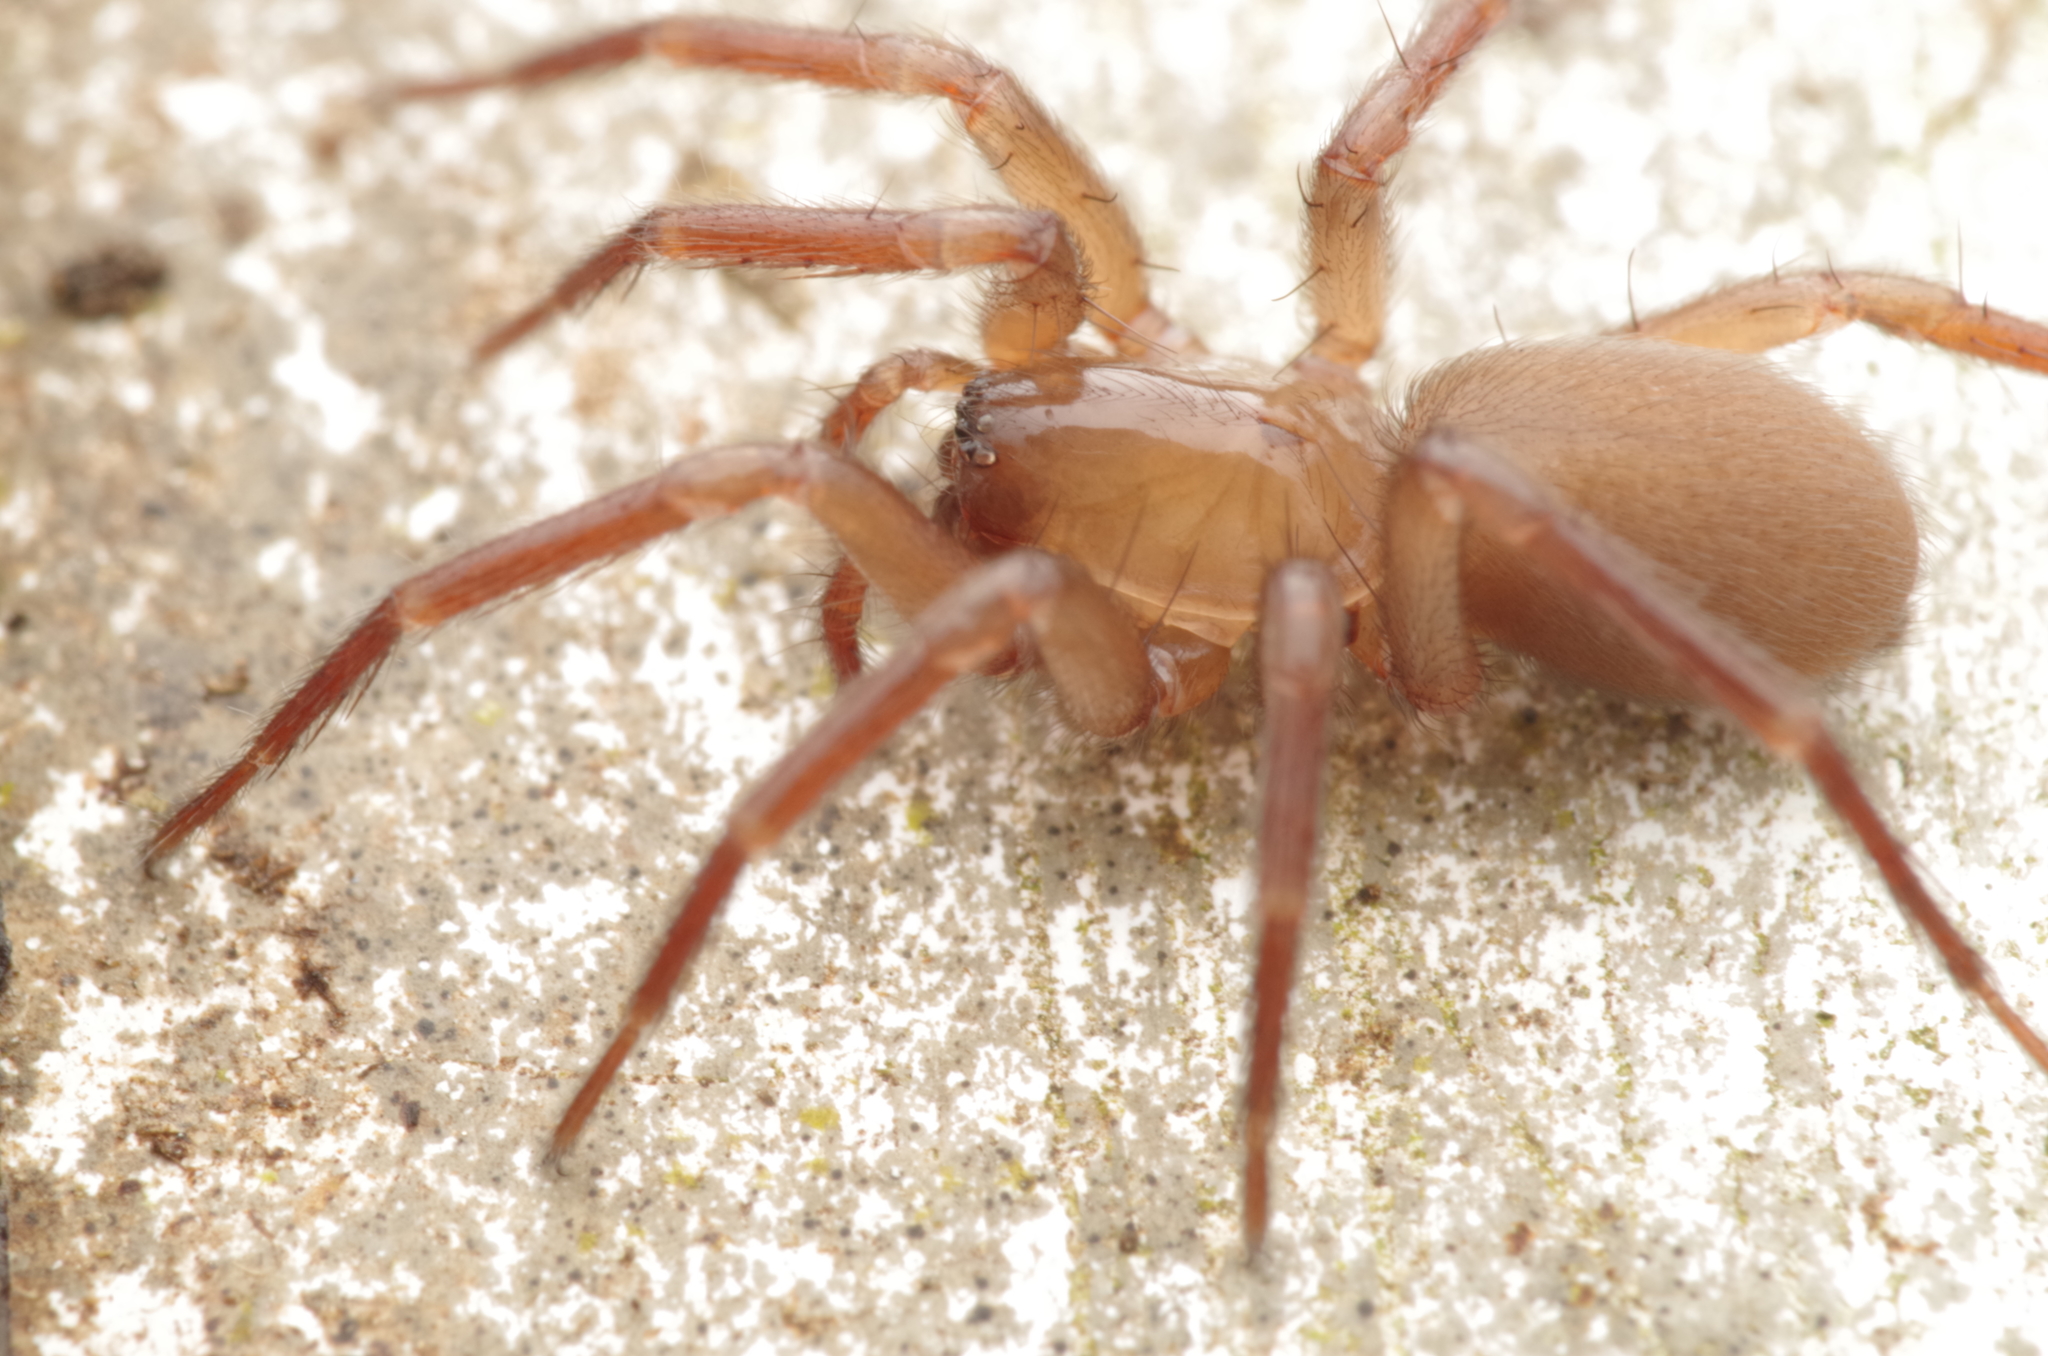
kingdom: Animalia
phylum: Arthropoda
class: Arachnida
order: Araneae
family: Hahniidae
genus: Cicurina
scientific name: Cicurina cicur
